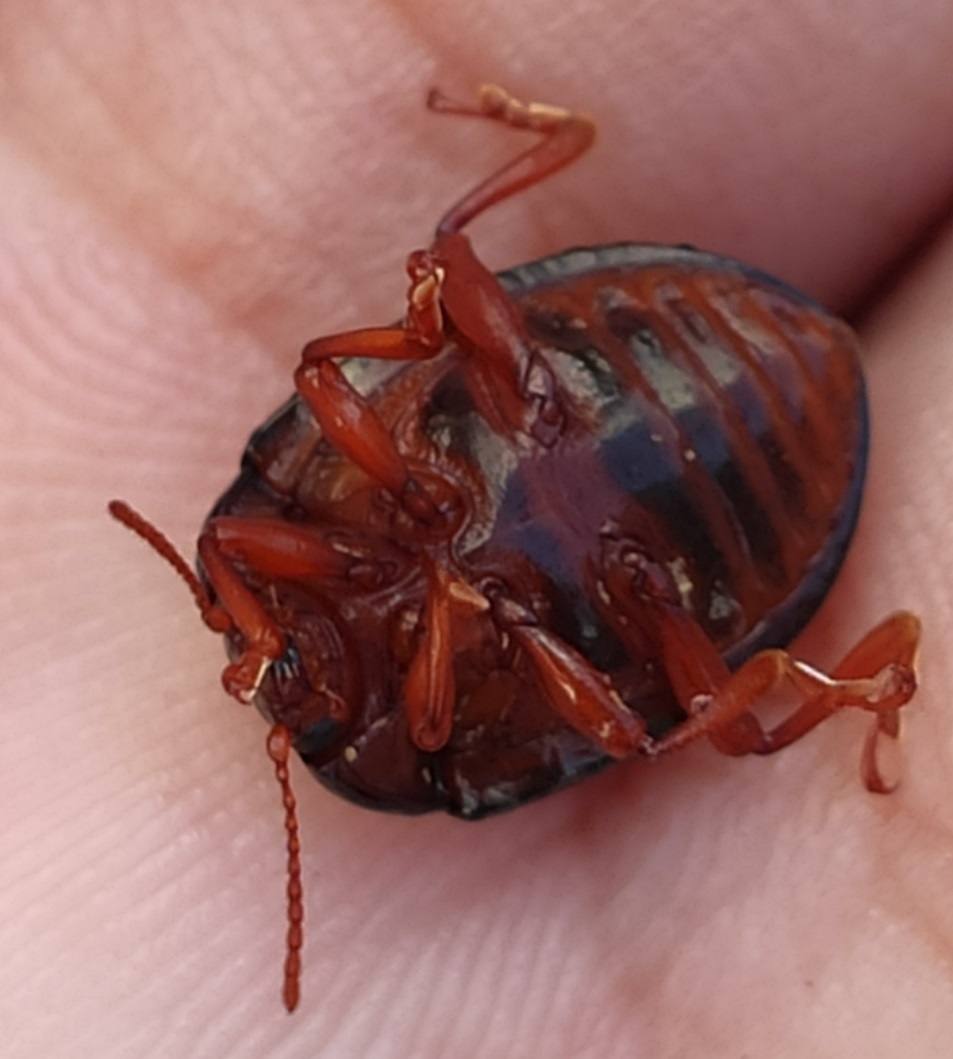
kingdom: Animalia
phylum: Arthropoda
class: Insecta
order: Coleoptera
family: Chrysomelidae
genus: Chrysolina
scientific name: Chrysolina bankii
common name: Leaf beetle
